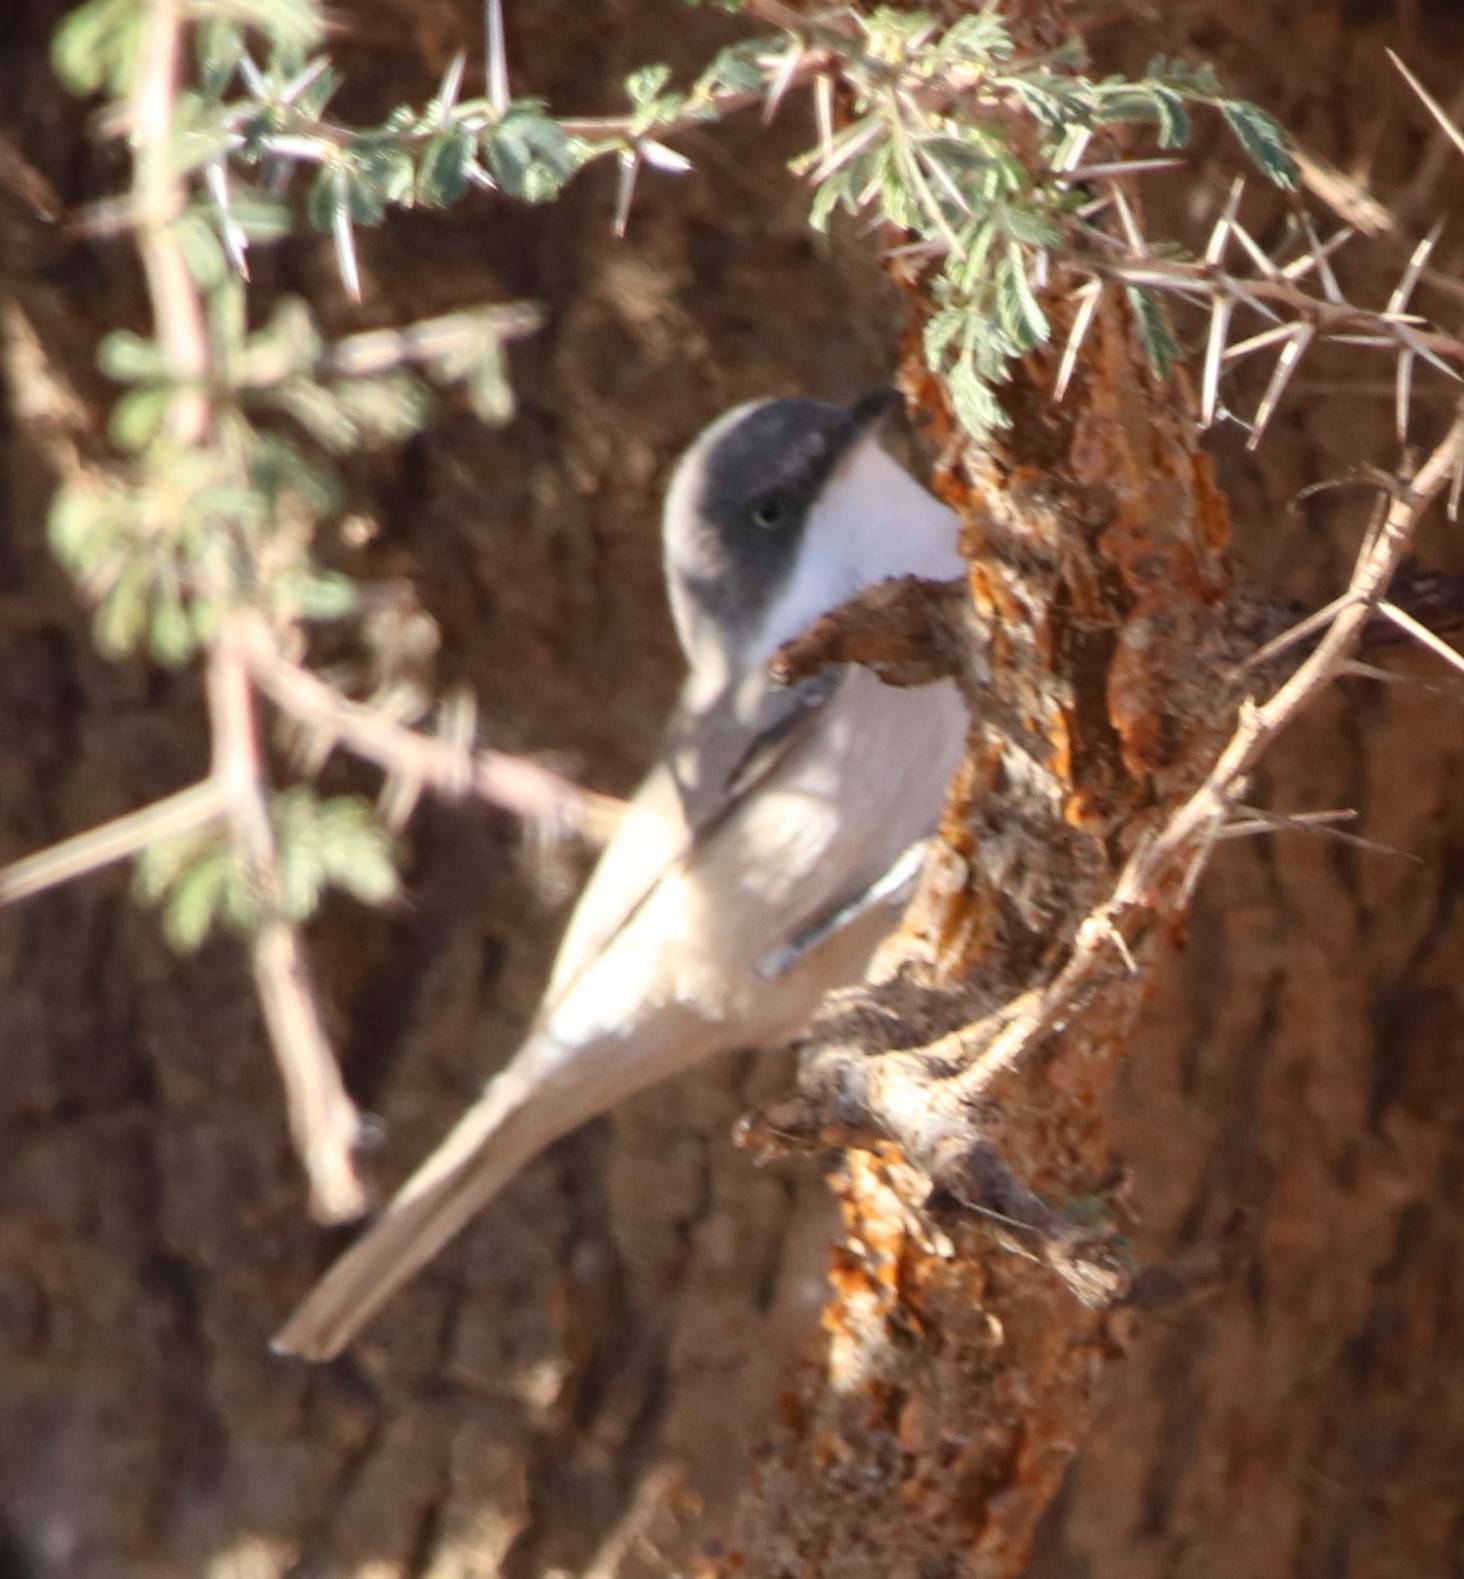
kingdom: Animalia
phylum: Chordata
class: Aves
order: Passeriformes
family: Sylviidae
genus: Sylvia
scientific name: Sylvia hortensis
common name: Orphean warbler
